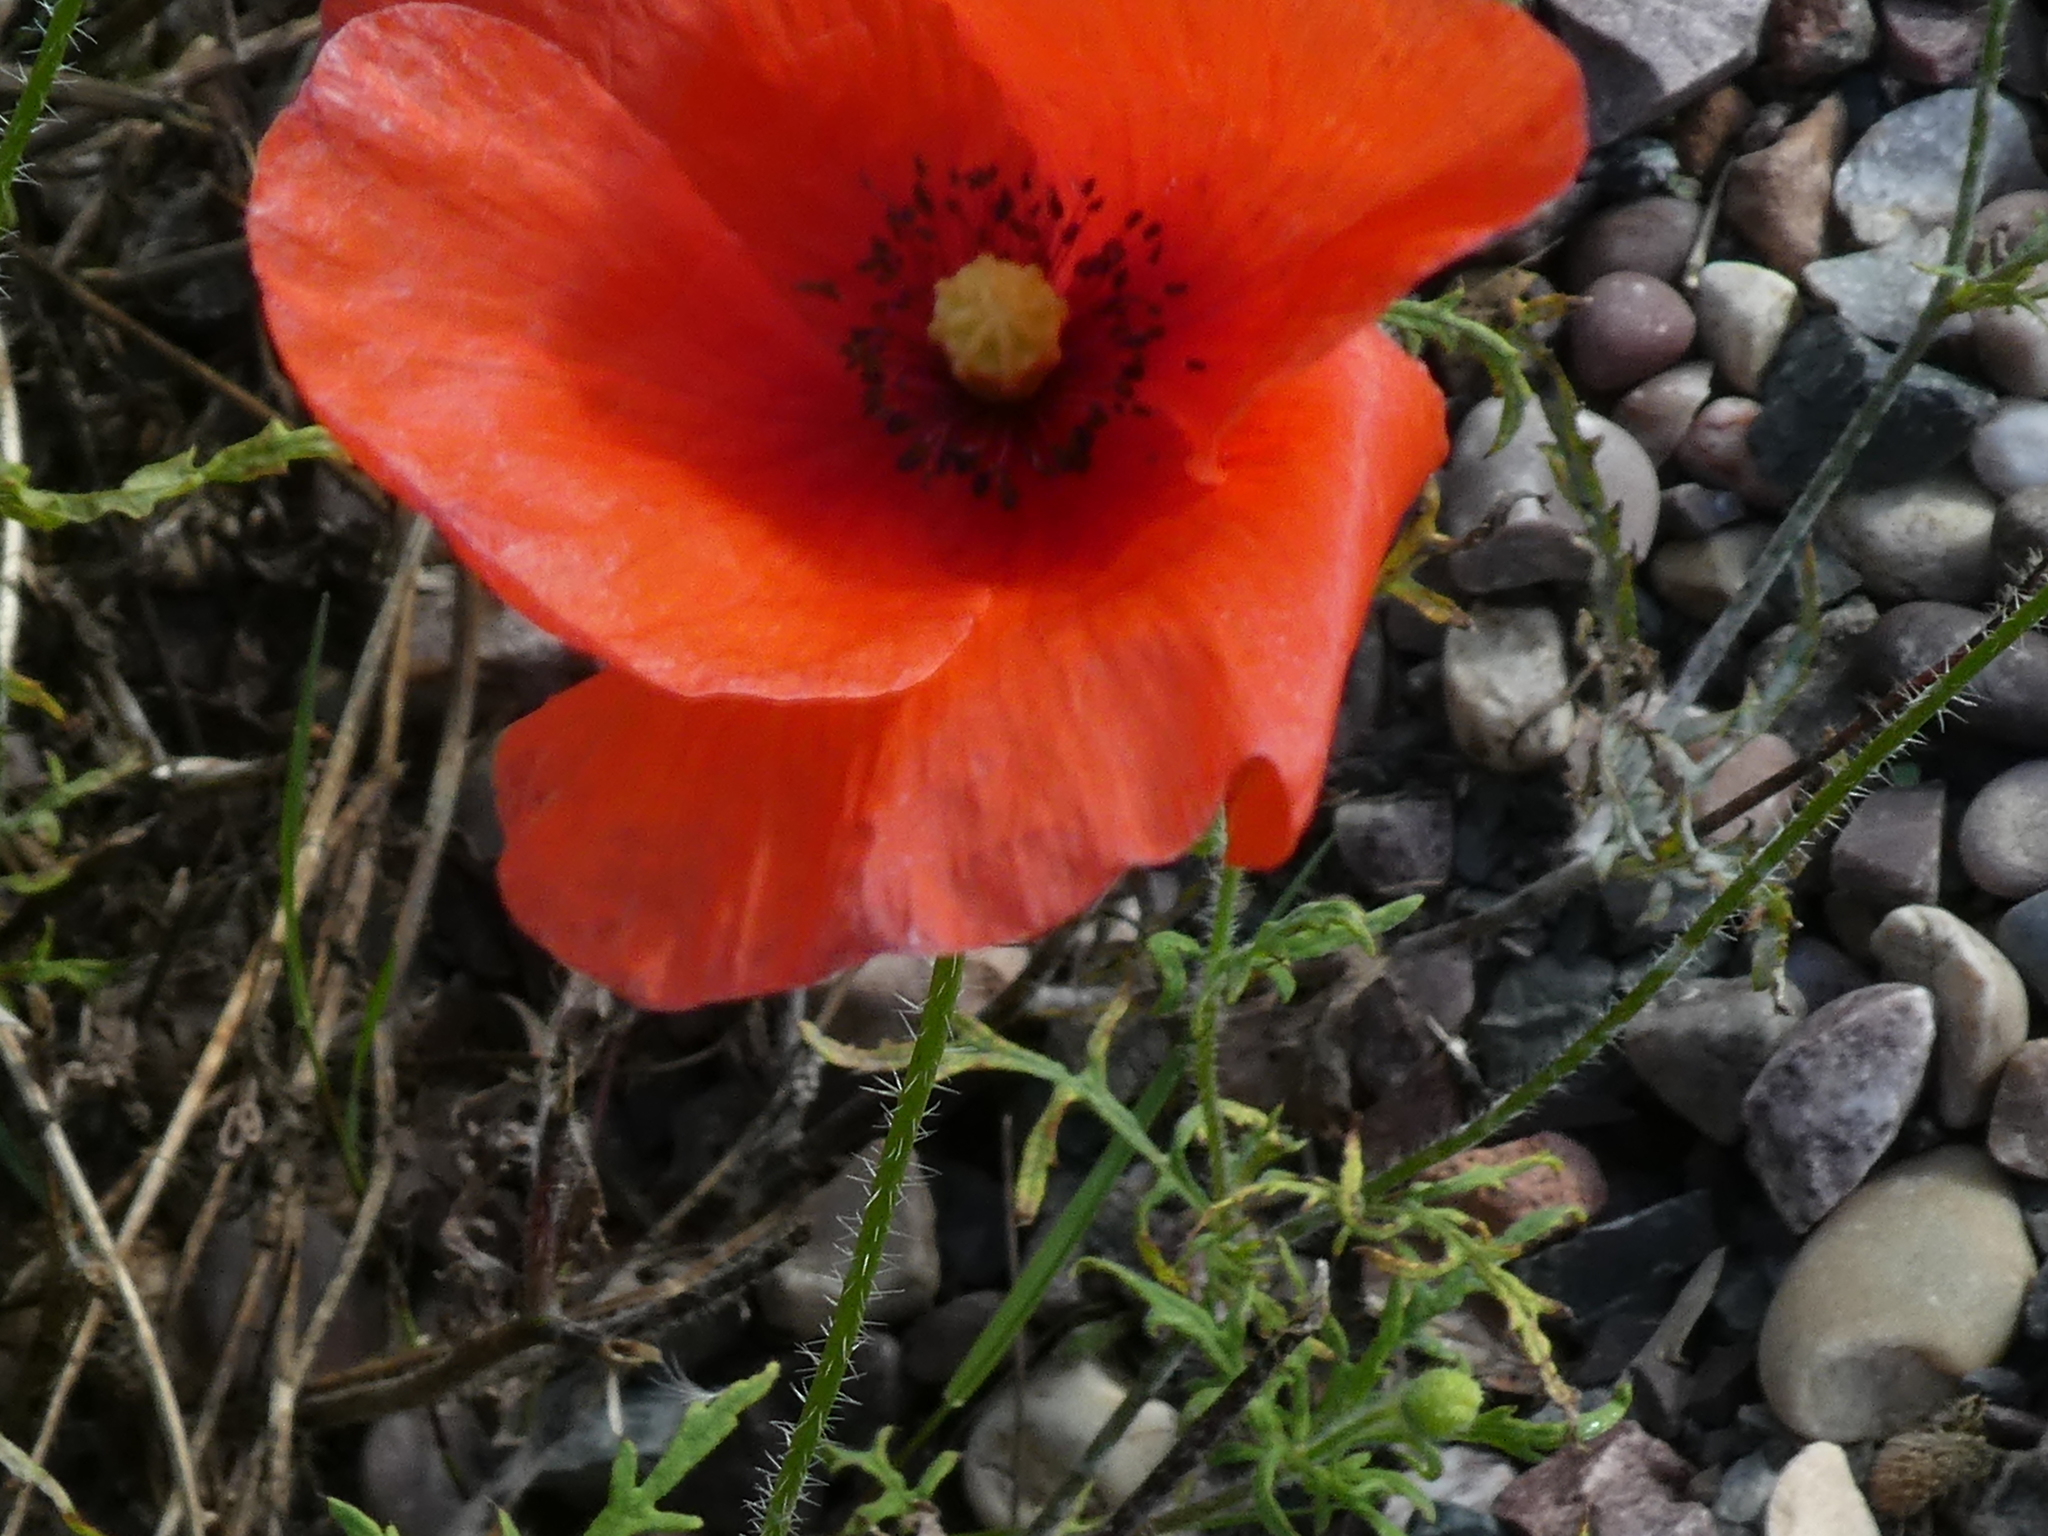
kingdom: Plantae
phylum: Tracheophyta
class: Magnoliopsida
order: Ranunculales
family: Papaveraceae
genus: Papaver
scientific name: Papaver rhoeas
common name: Corn poppy
